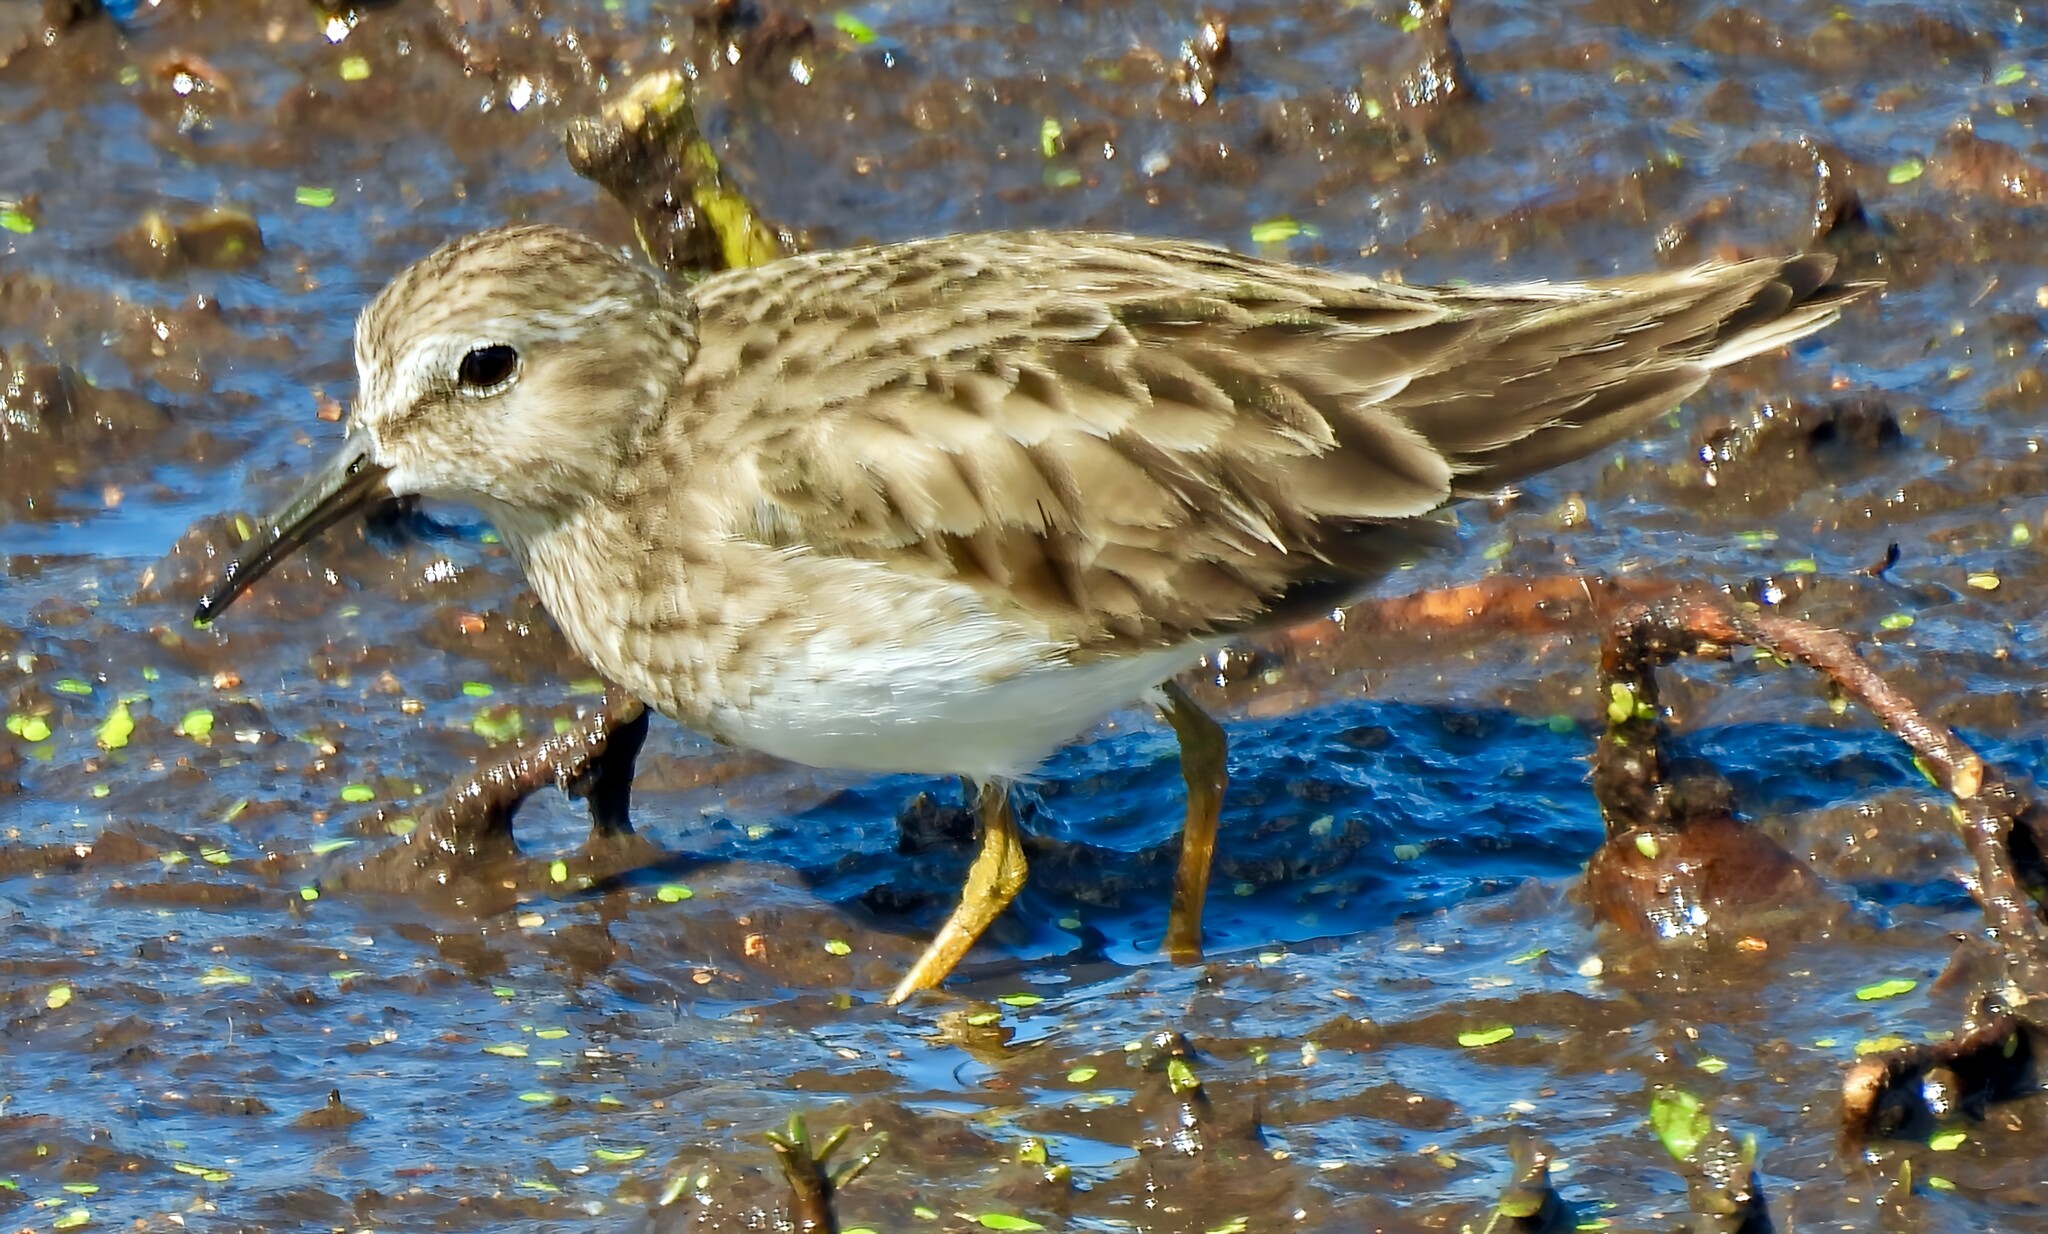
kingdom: Animalia
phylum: Chordata
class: Aves
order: Charadriiformes
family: Scolopacidae
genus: Calidris
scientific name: Calidris minutilla
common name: Least sandpiper
